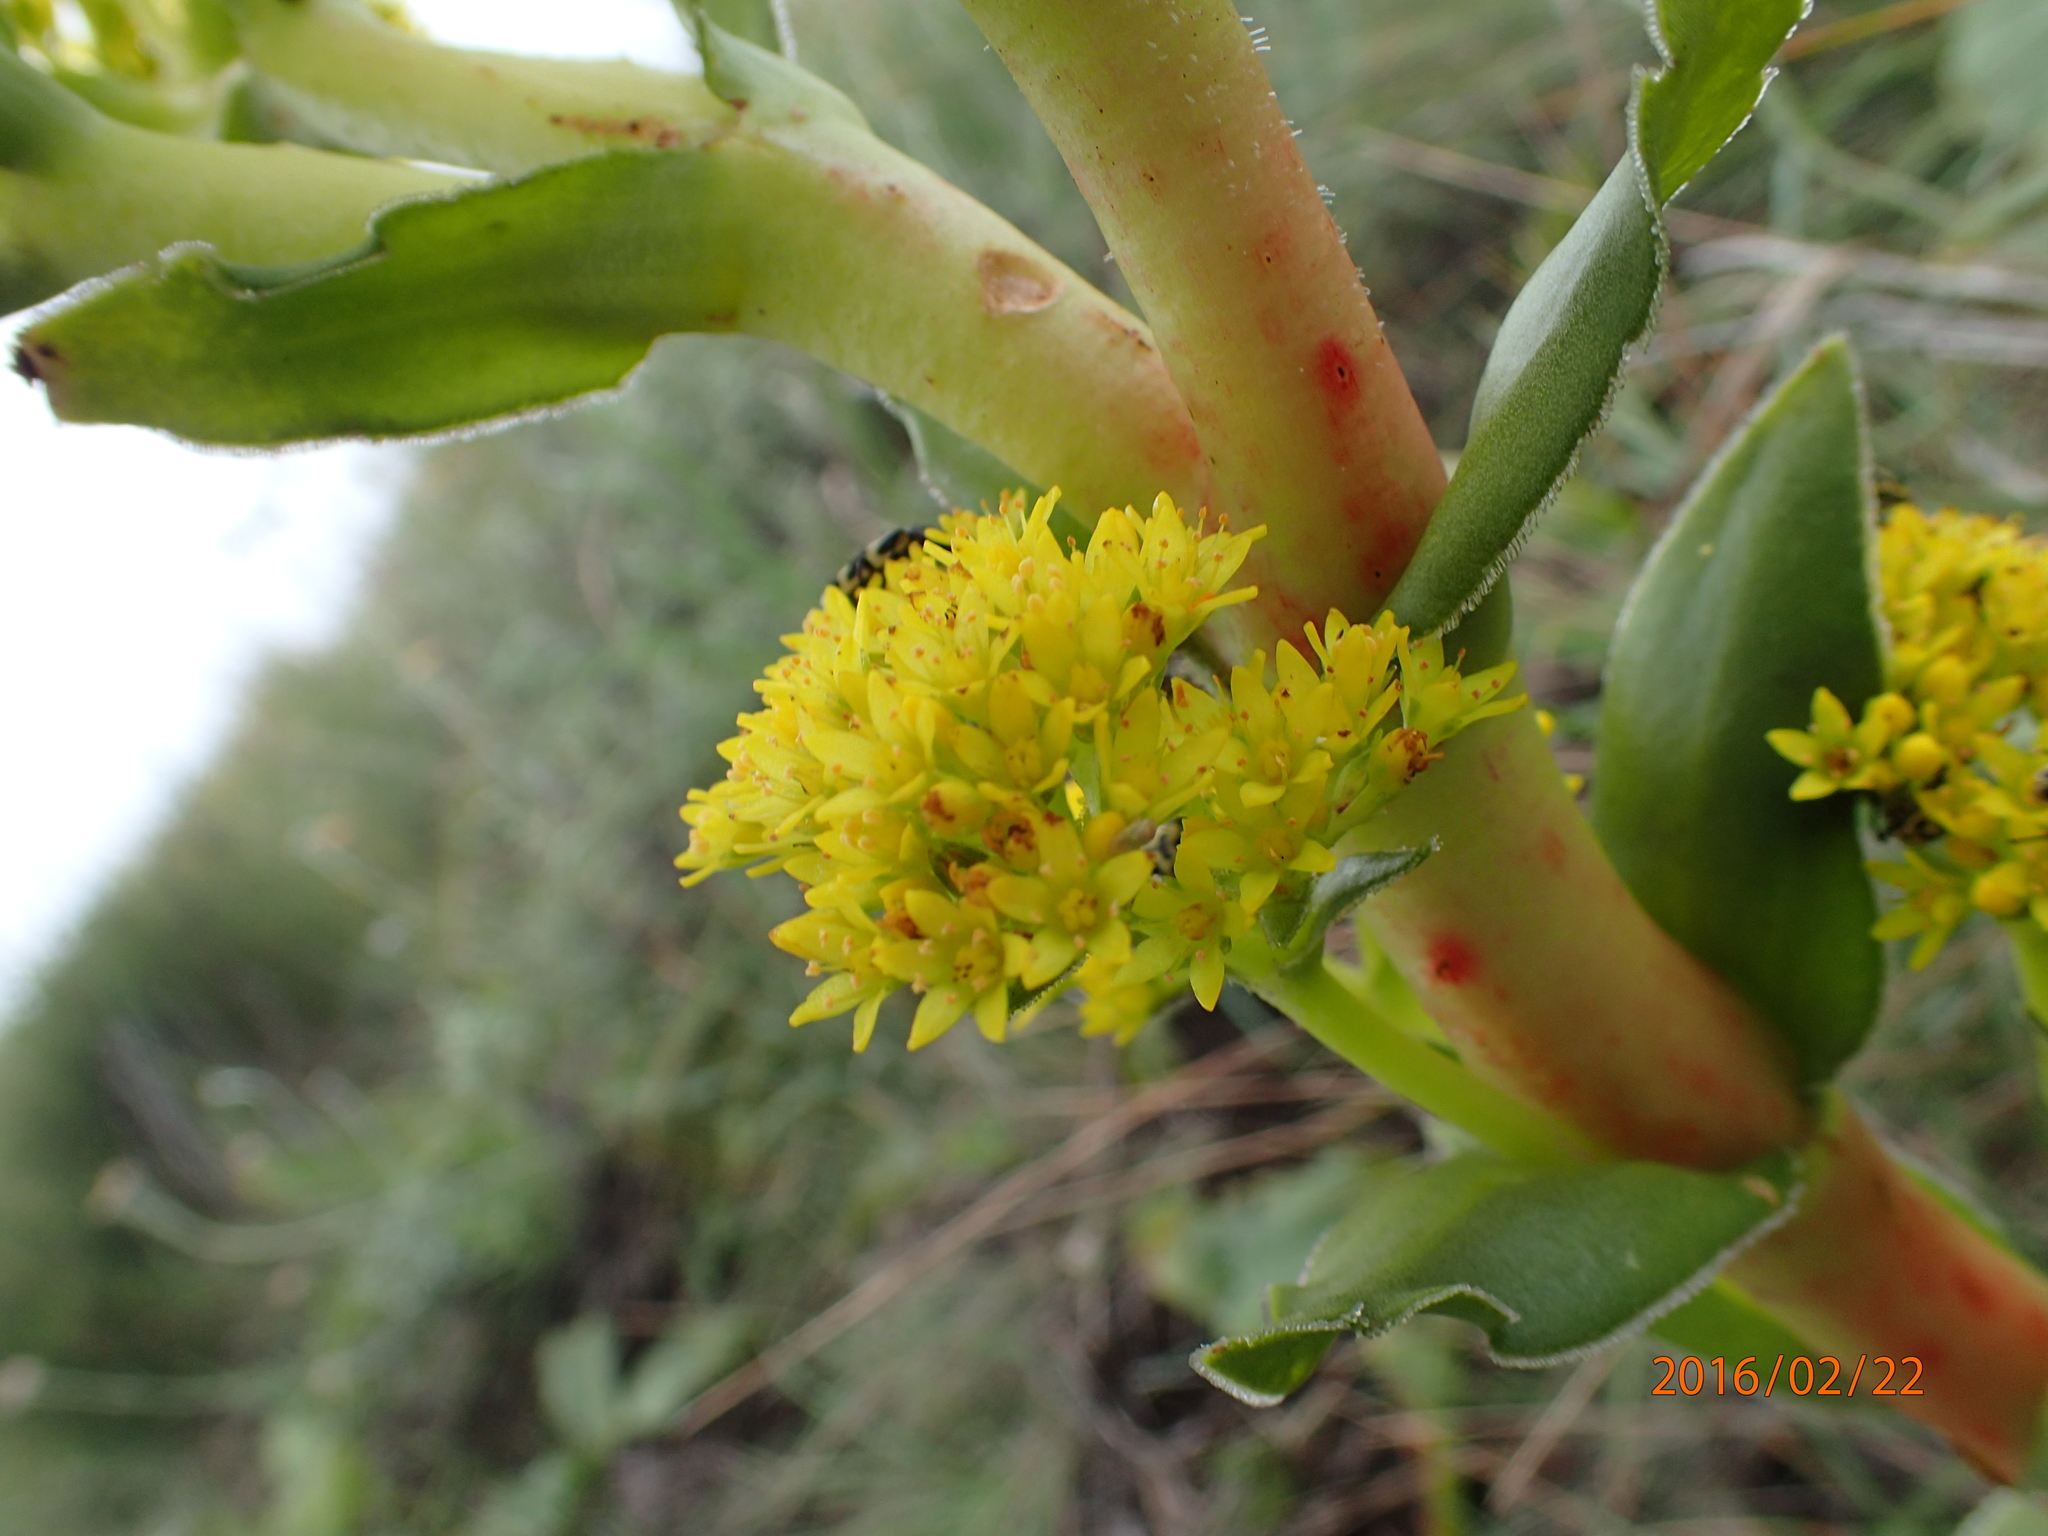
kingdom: Plantae
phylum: Tracheophyta
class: Magnoliopsida
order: Saxifragales
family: Crassulaceae
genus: Crassula
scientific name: Crassula vaginata
